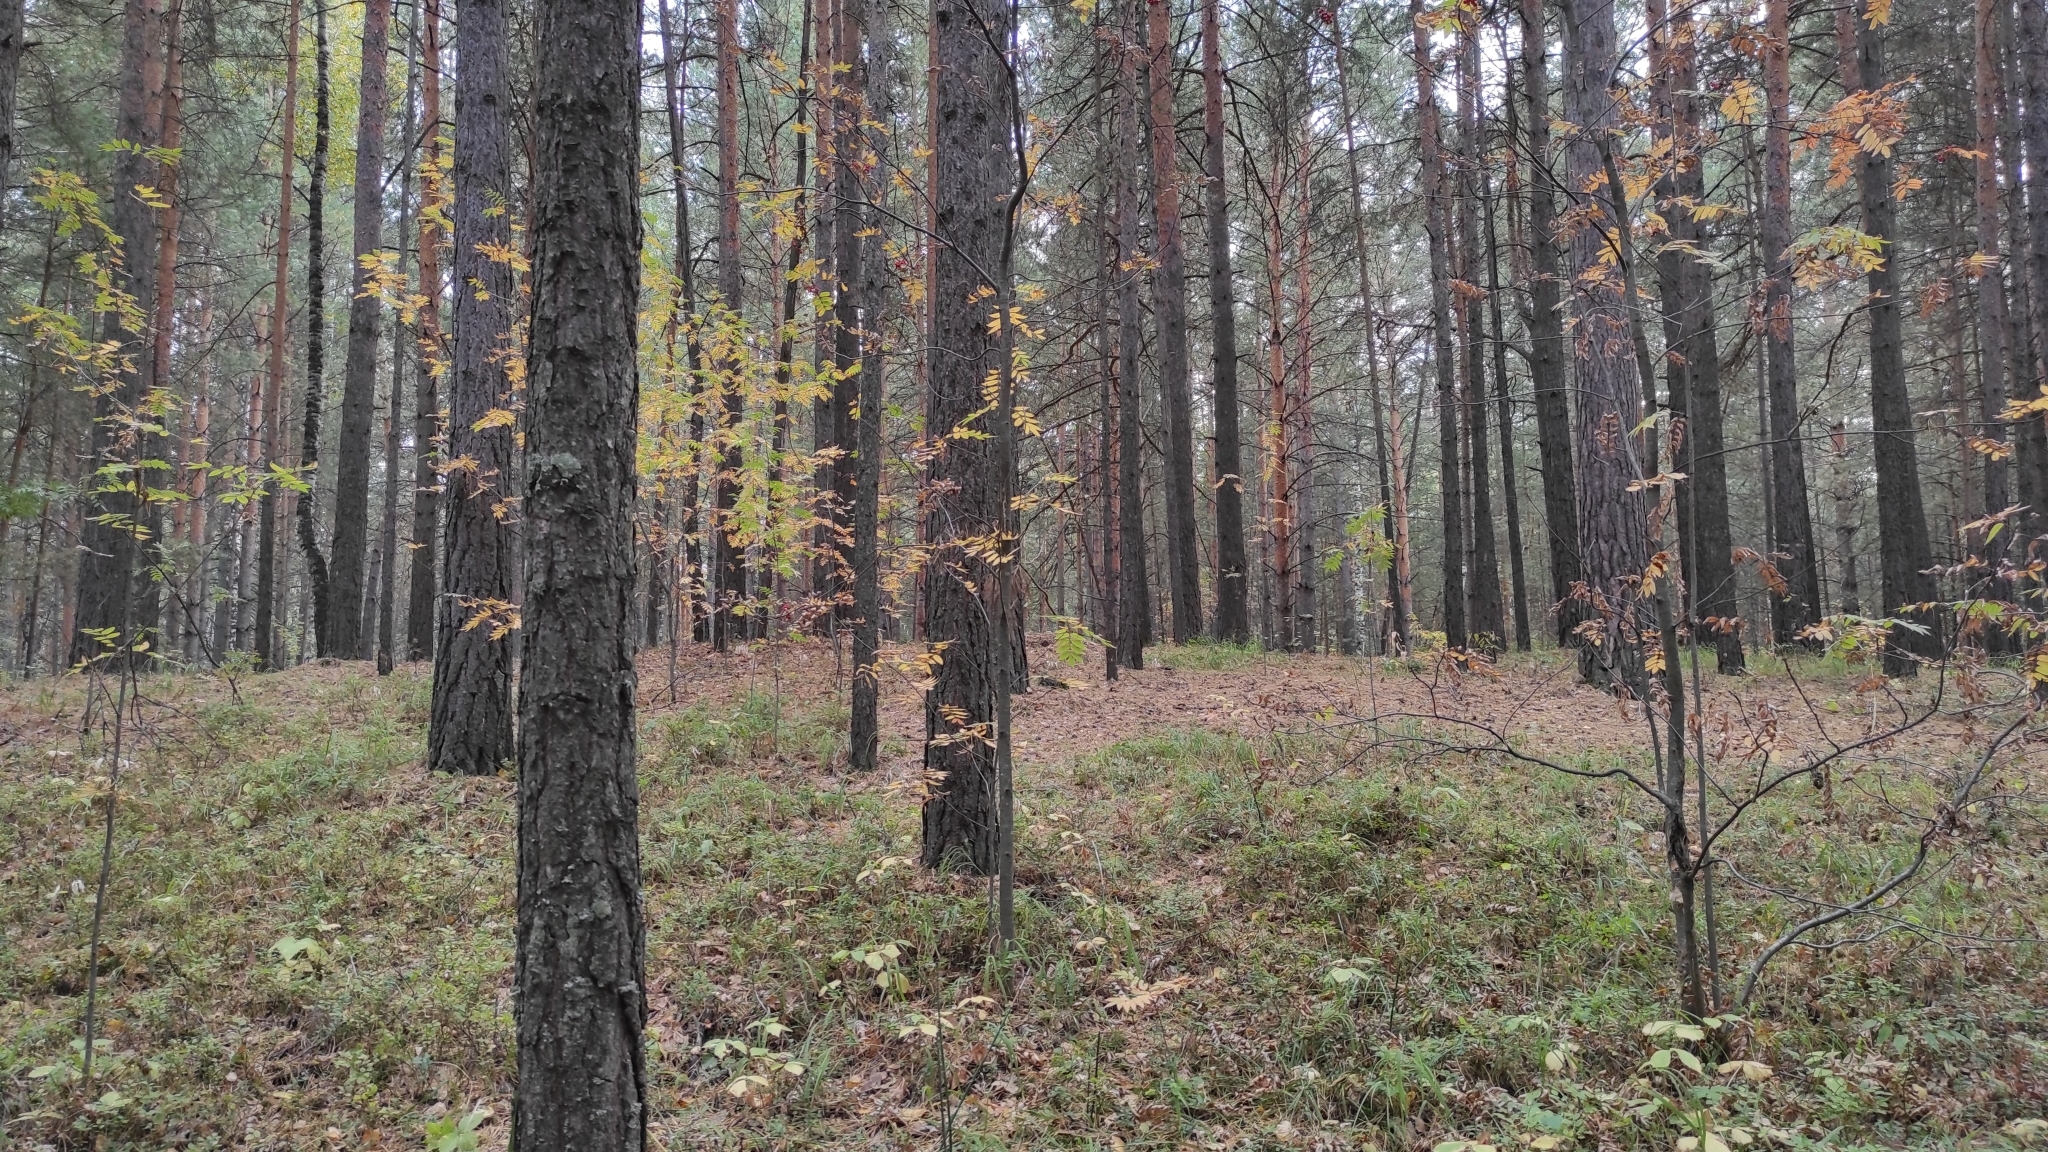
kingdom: Plantae
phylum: Tracheophyta
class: Pinopsida
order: Pinales
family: Pinaceae
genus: Pinus
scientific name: Pinus sylvestris
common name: Scots pine
